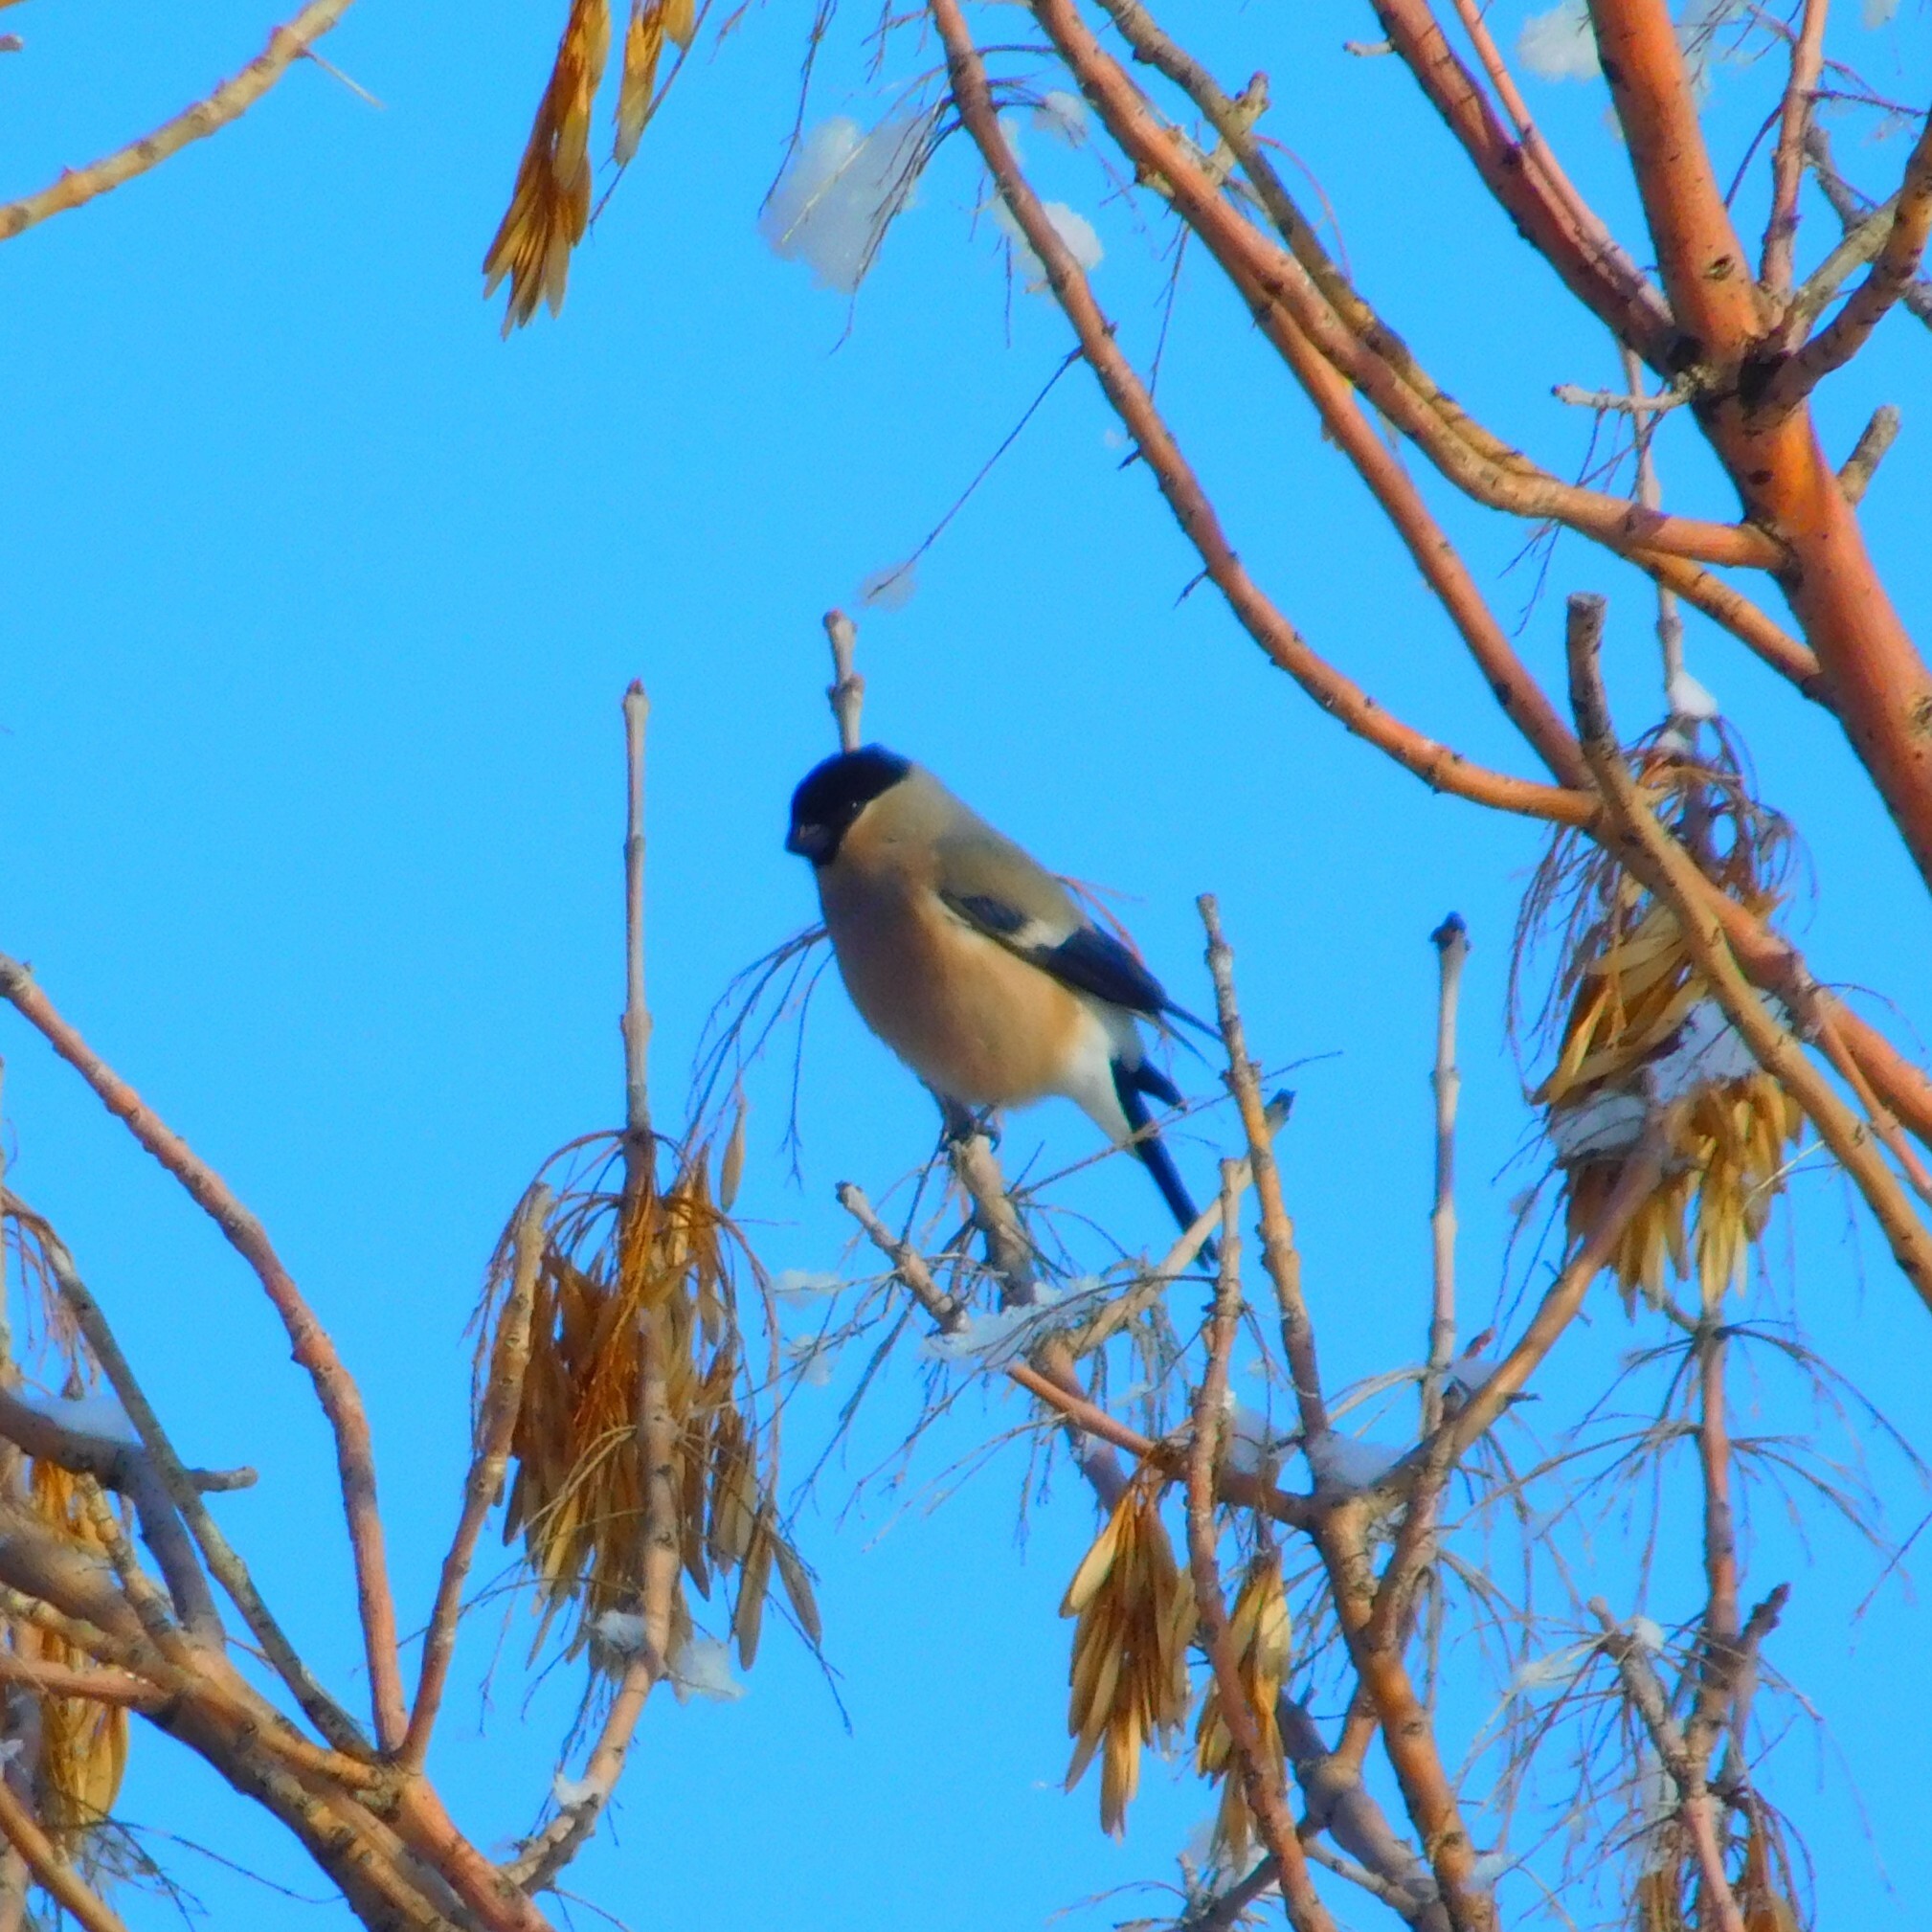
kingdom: Animalia
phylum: Chordata
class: Aves
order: Passeriformes
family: Fringillidae
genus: Pyrrhula
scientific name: Pyrrhula pyrrhula
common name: Eurasian bullfinch
